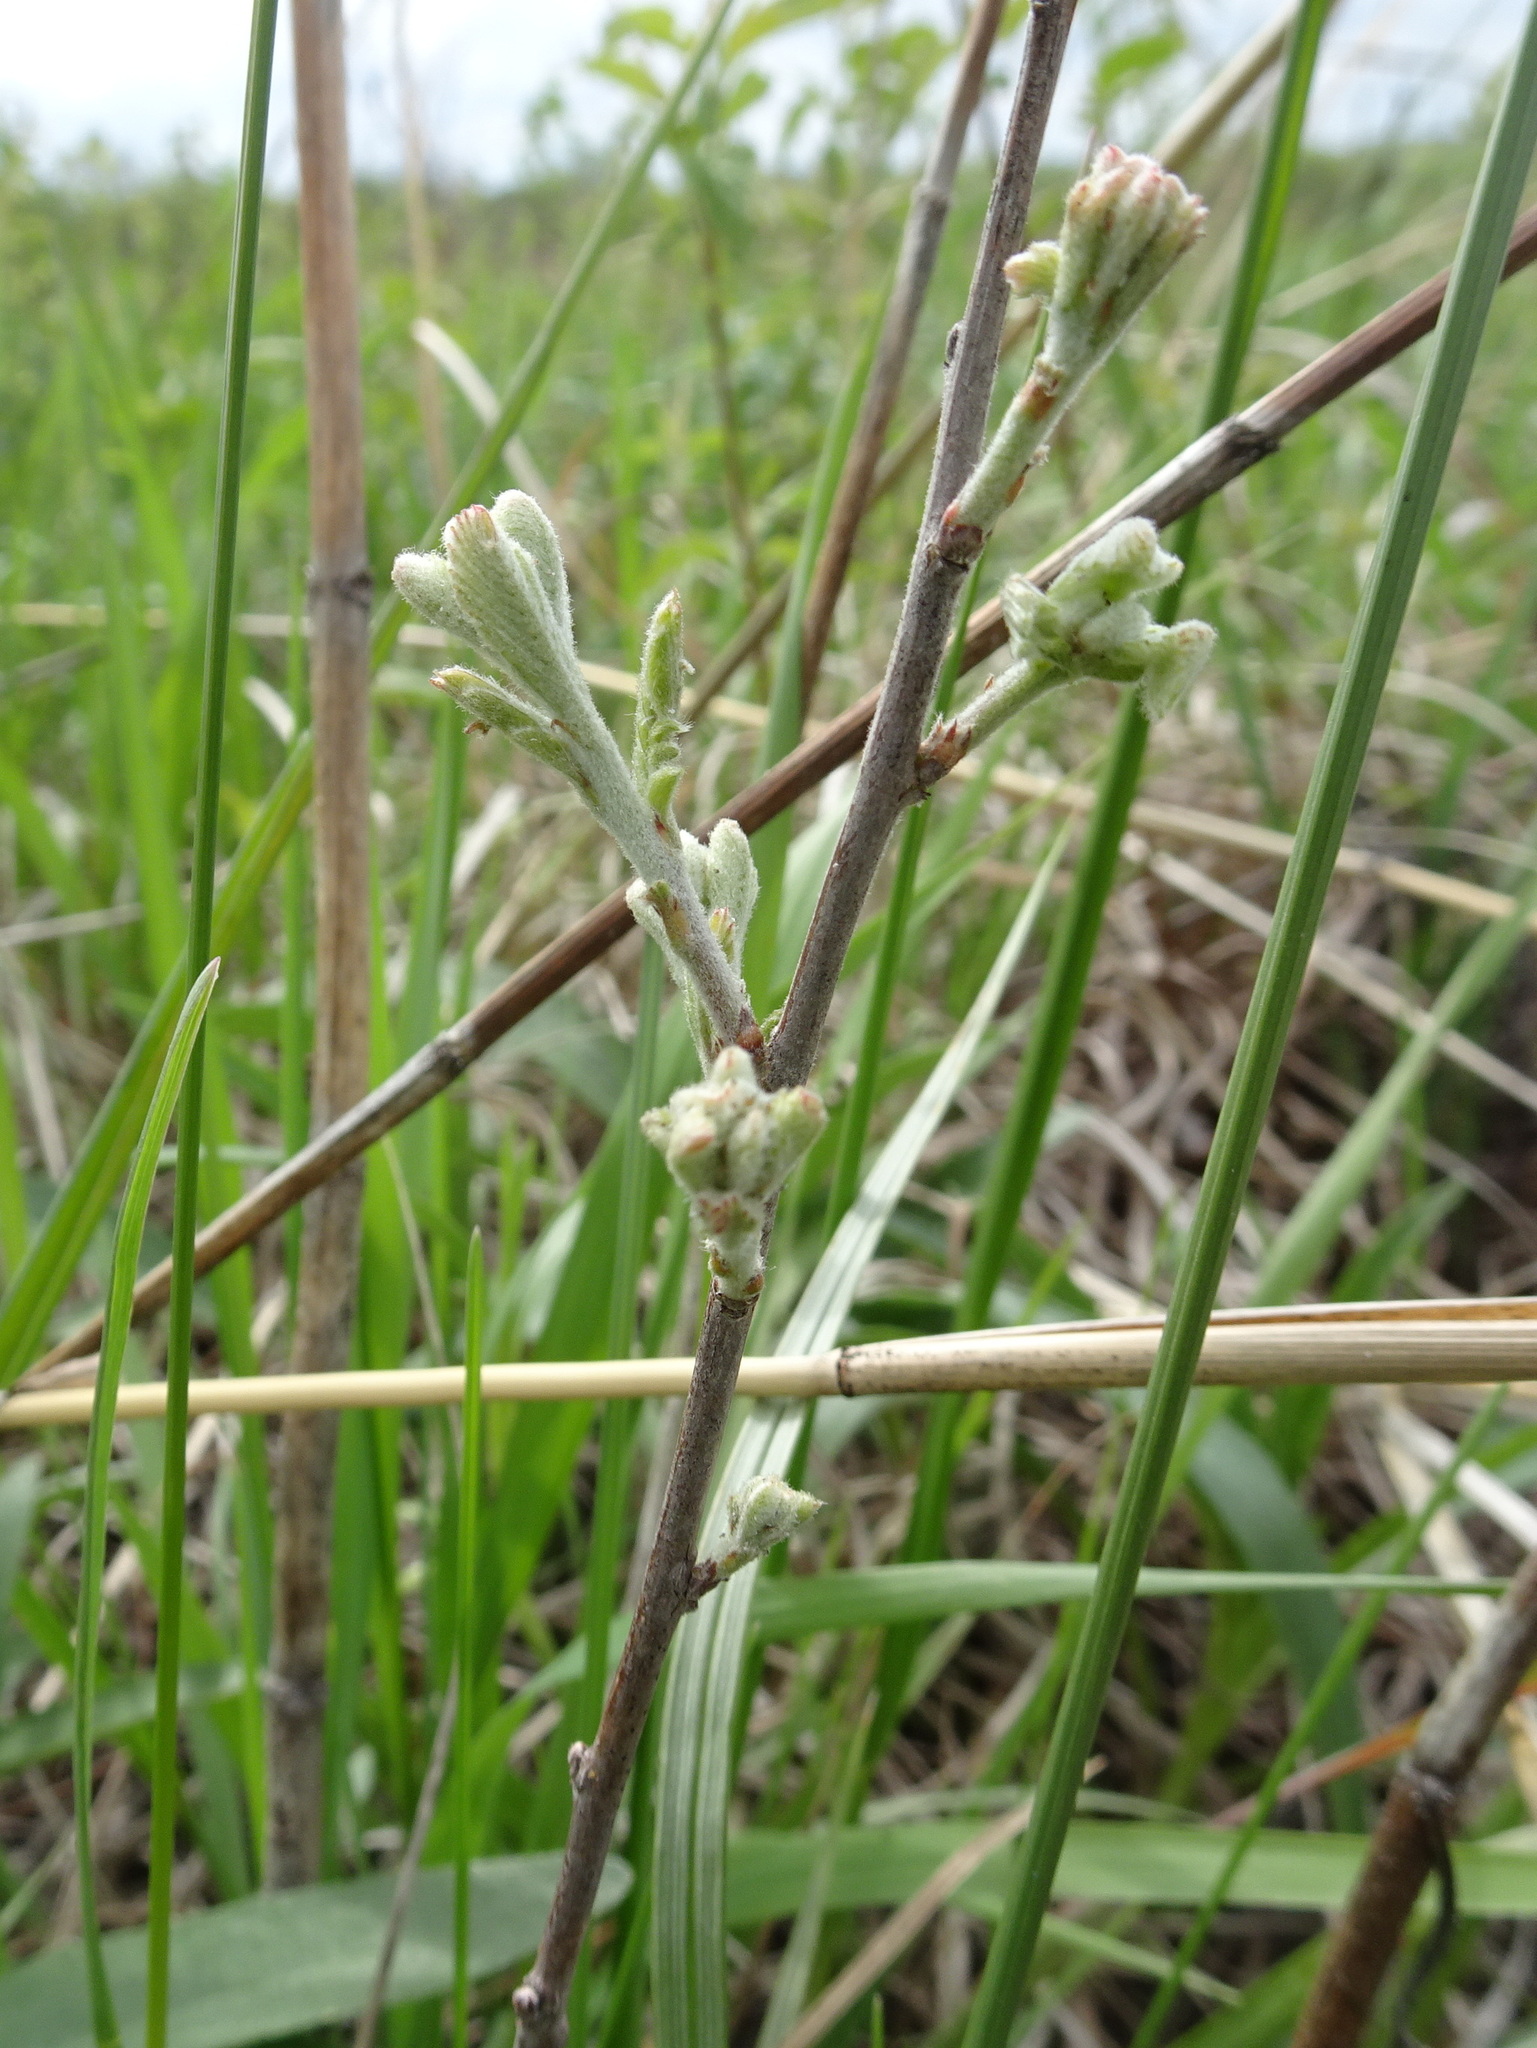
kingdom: Plantae
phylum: Tracheophyta
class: Magnoliopsida
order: Fabales
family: Fabaceae
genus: Amorpha
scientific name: Amorpha canescens
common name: Leadplant
